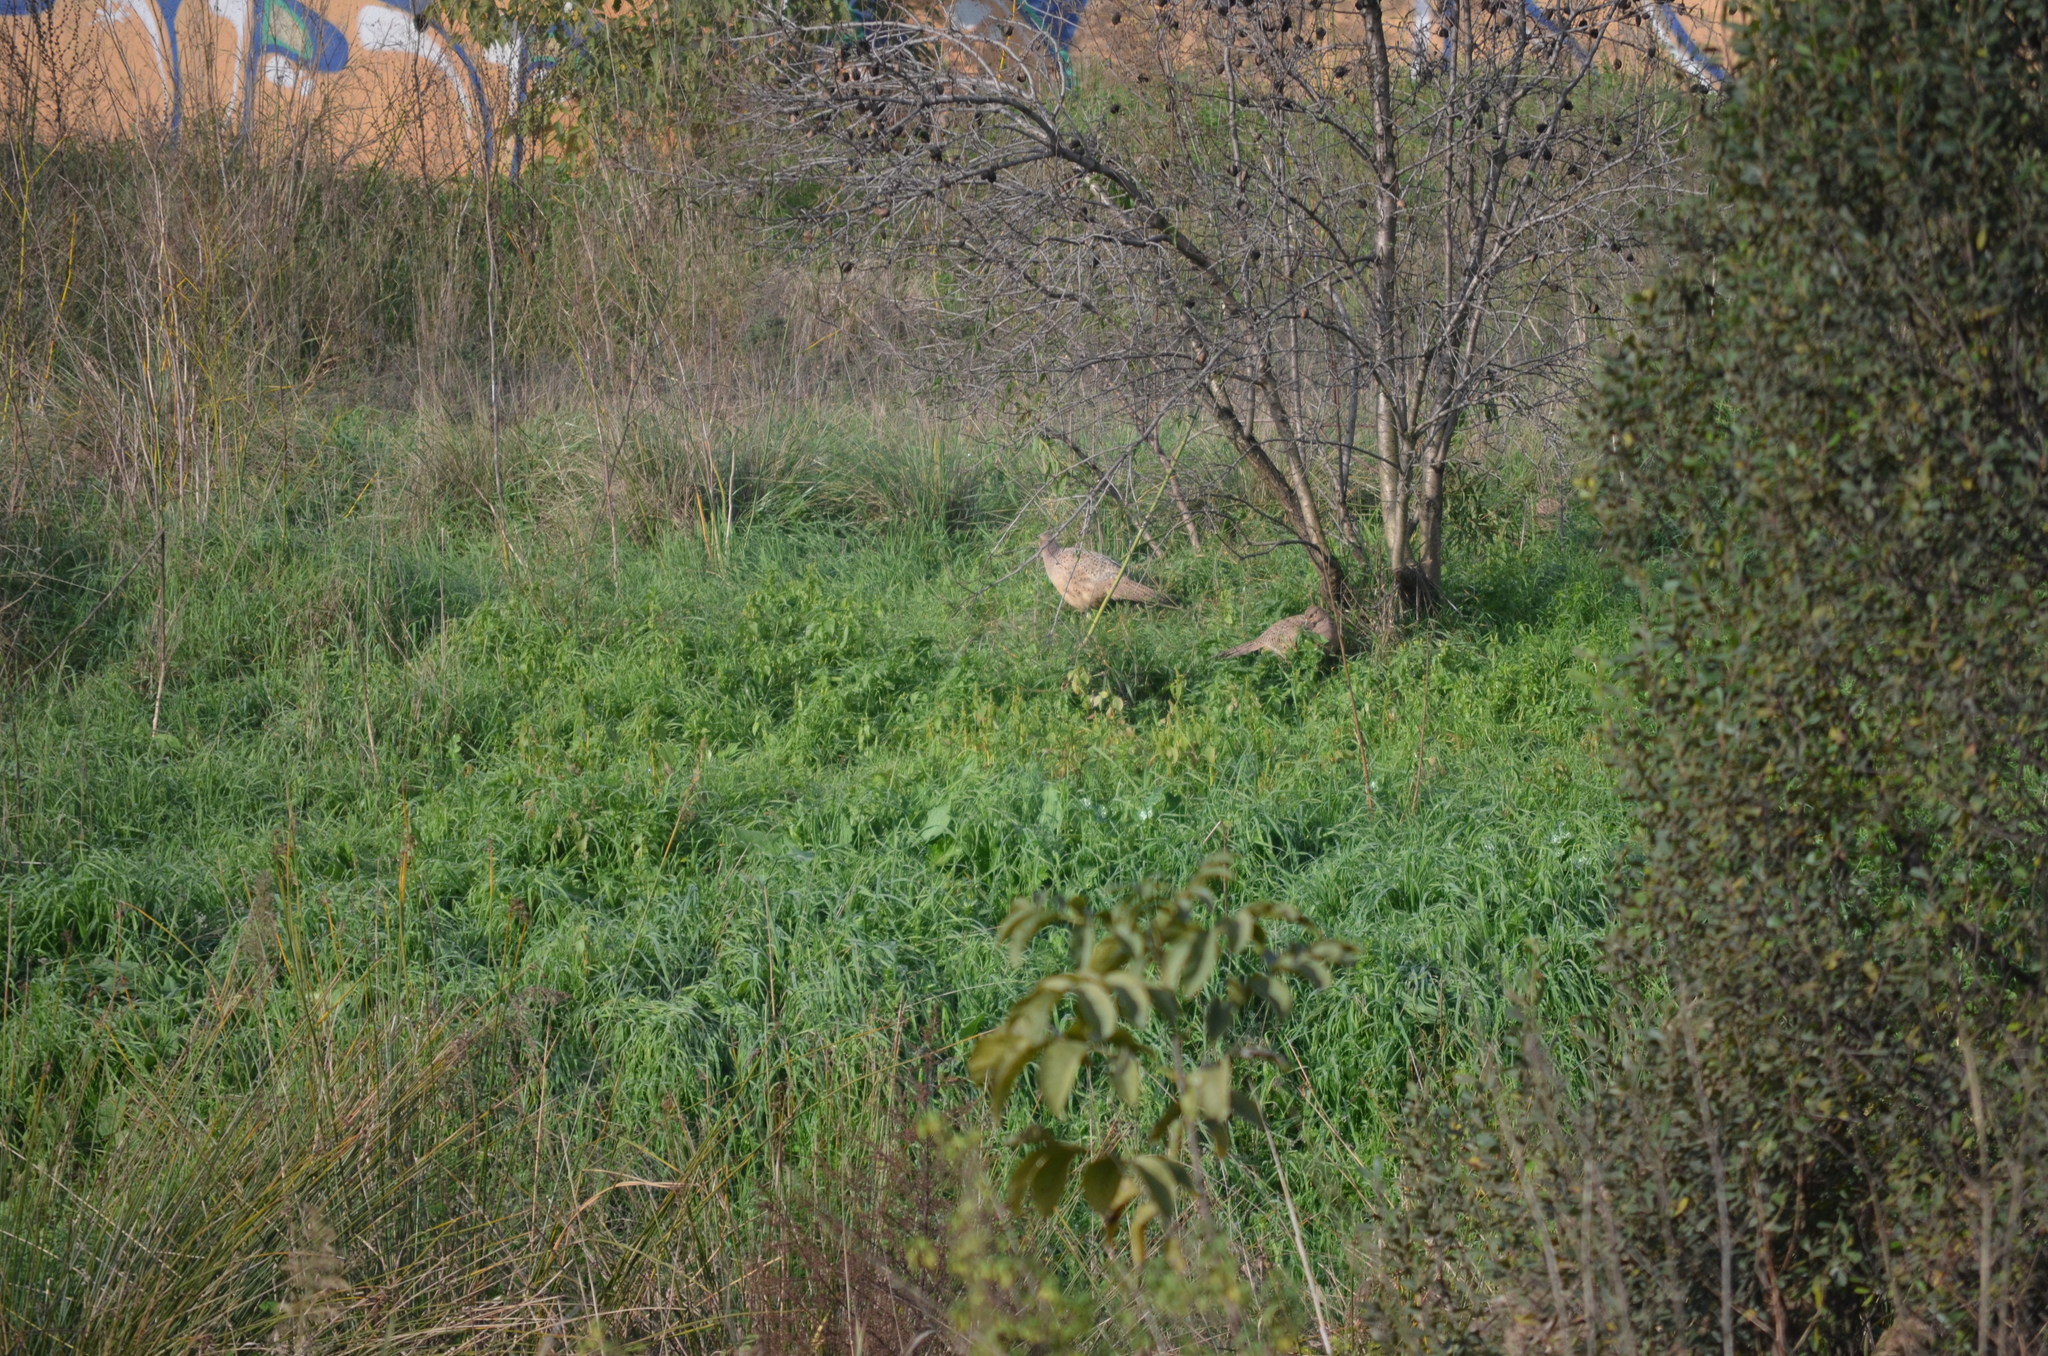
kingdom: Animalia
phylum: Chordata
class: Aves
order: Galliformes
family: Phasianidae
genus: Phasianus
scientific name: Phasianus colchicus
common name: Common pheasant
